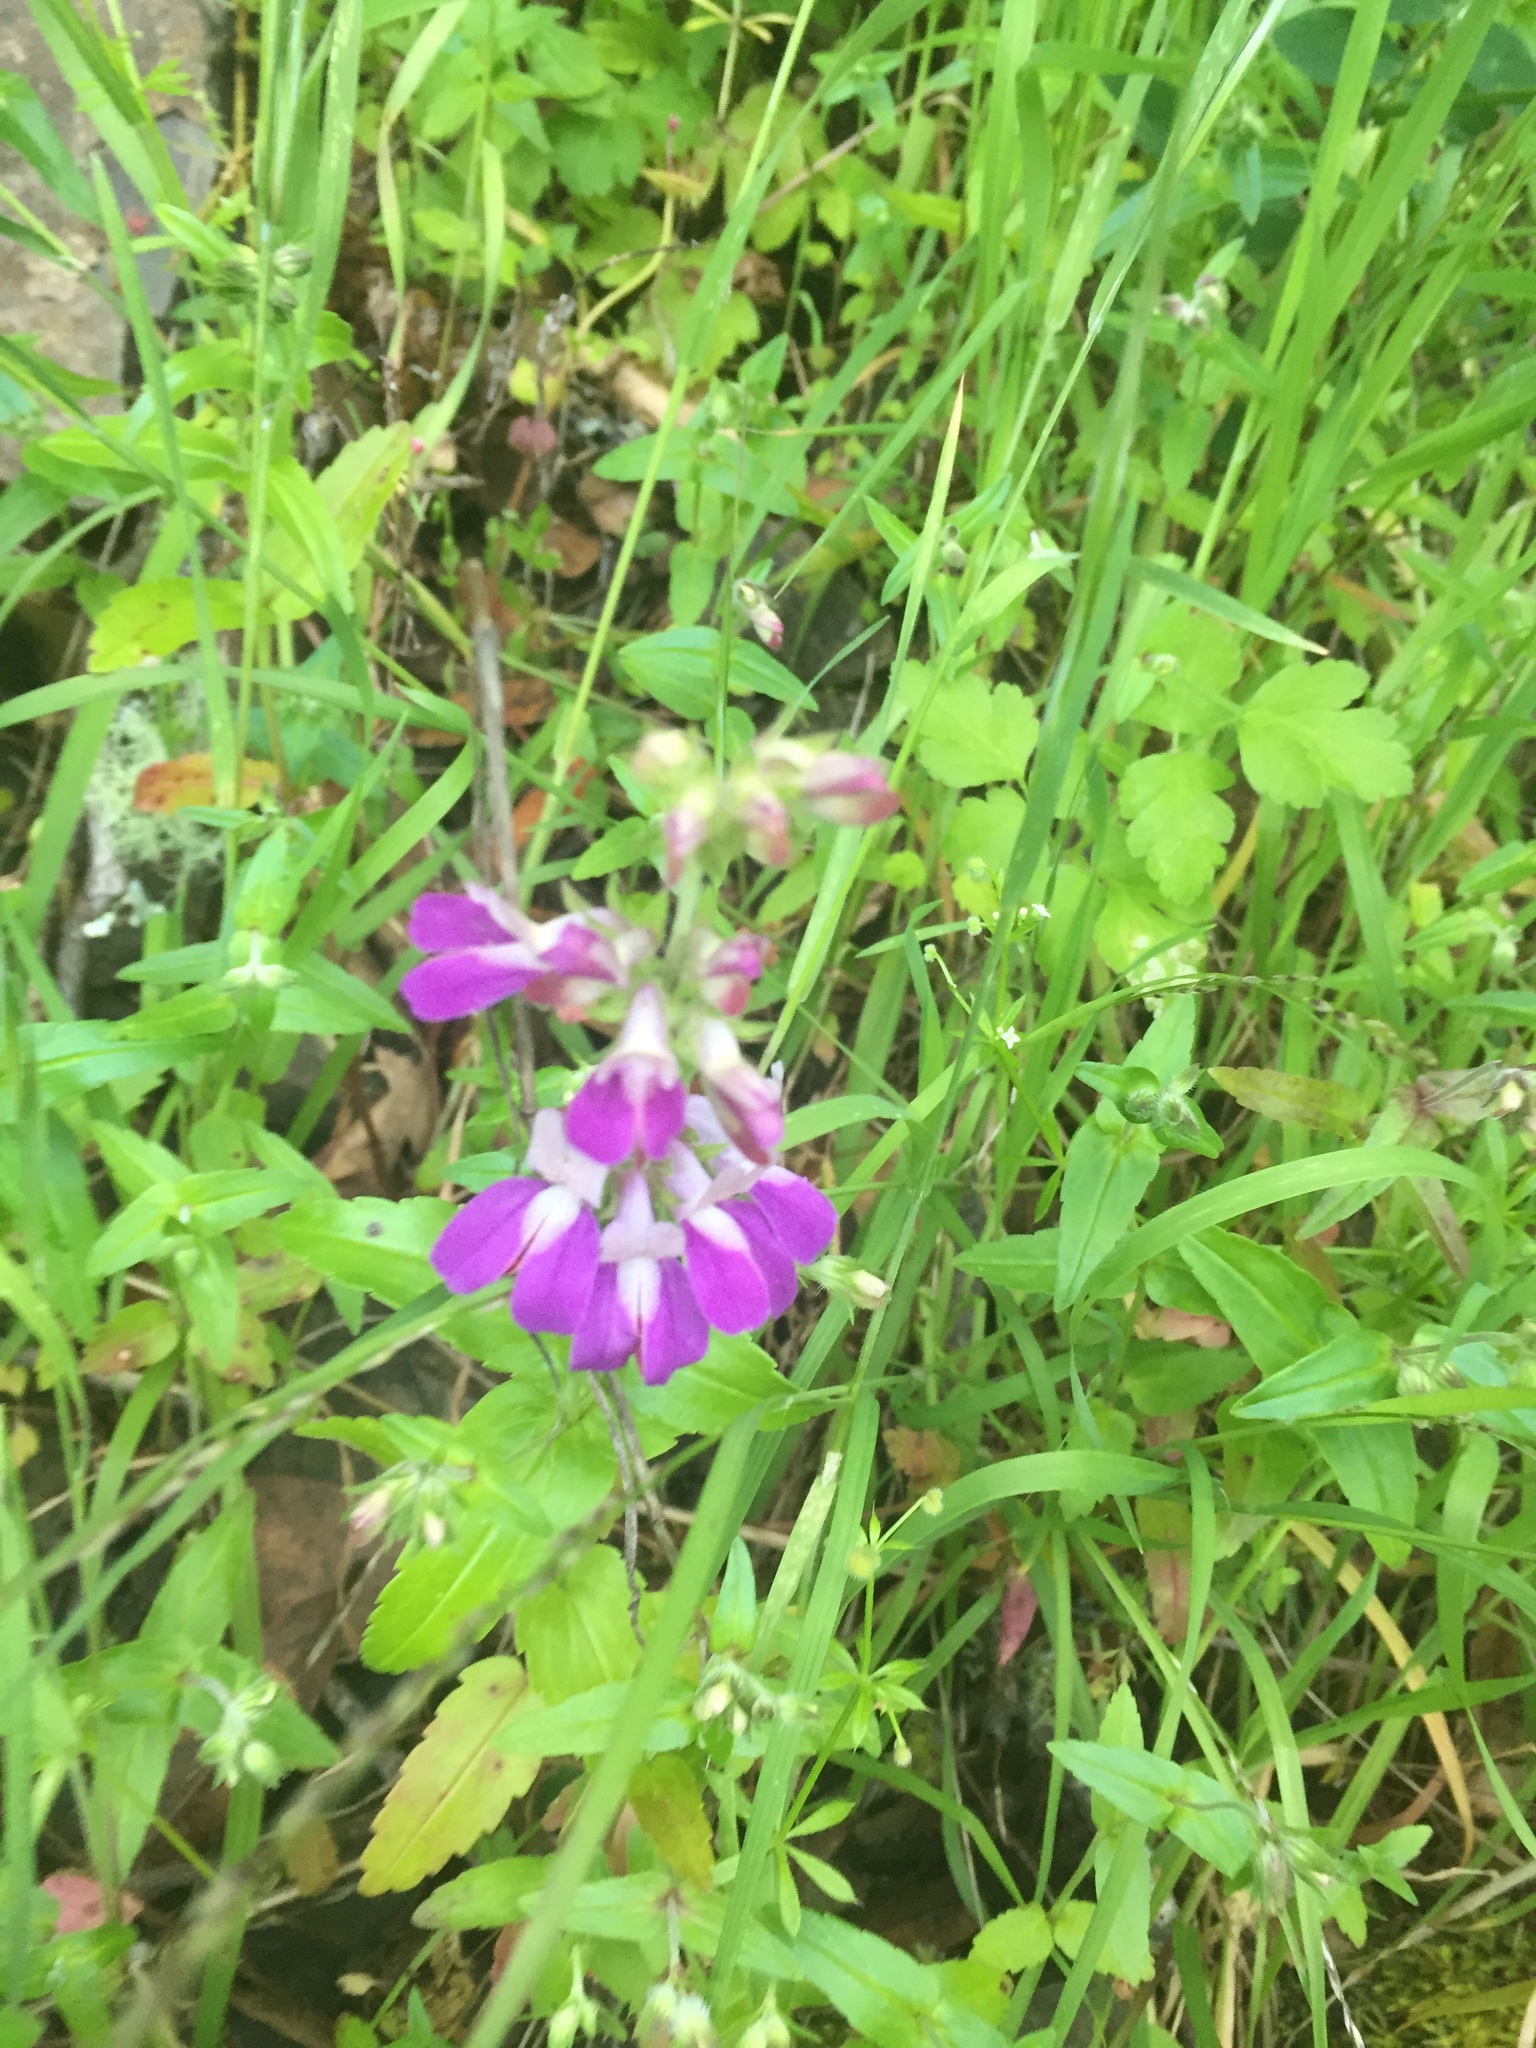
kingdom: Plantae
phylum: Tracheophyta
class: Magnoliopsida
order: Lamiales
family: Plantaginaceae
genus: Collinsia
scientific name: Collinsia heterophylla
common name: Chinese-houses
